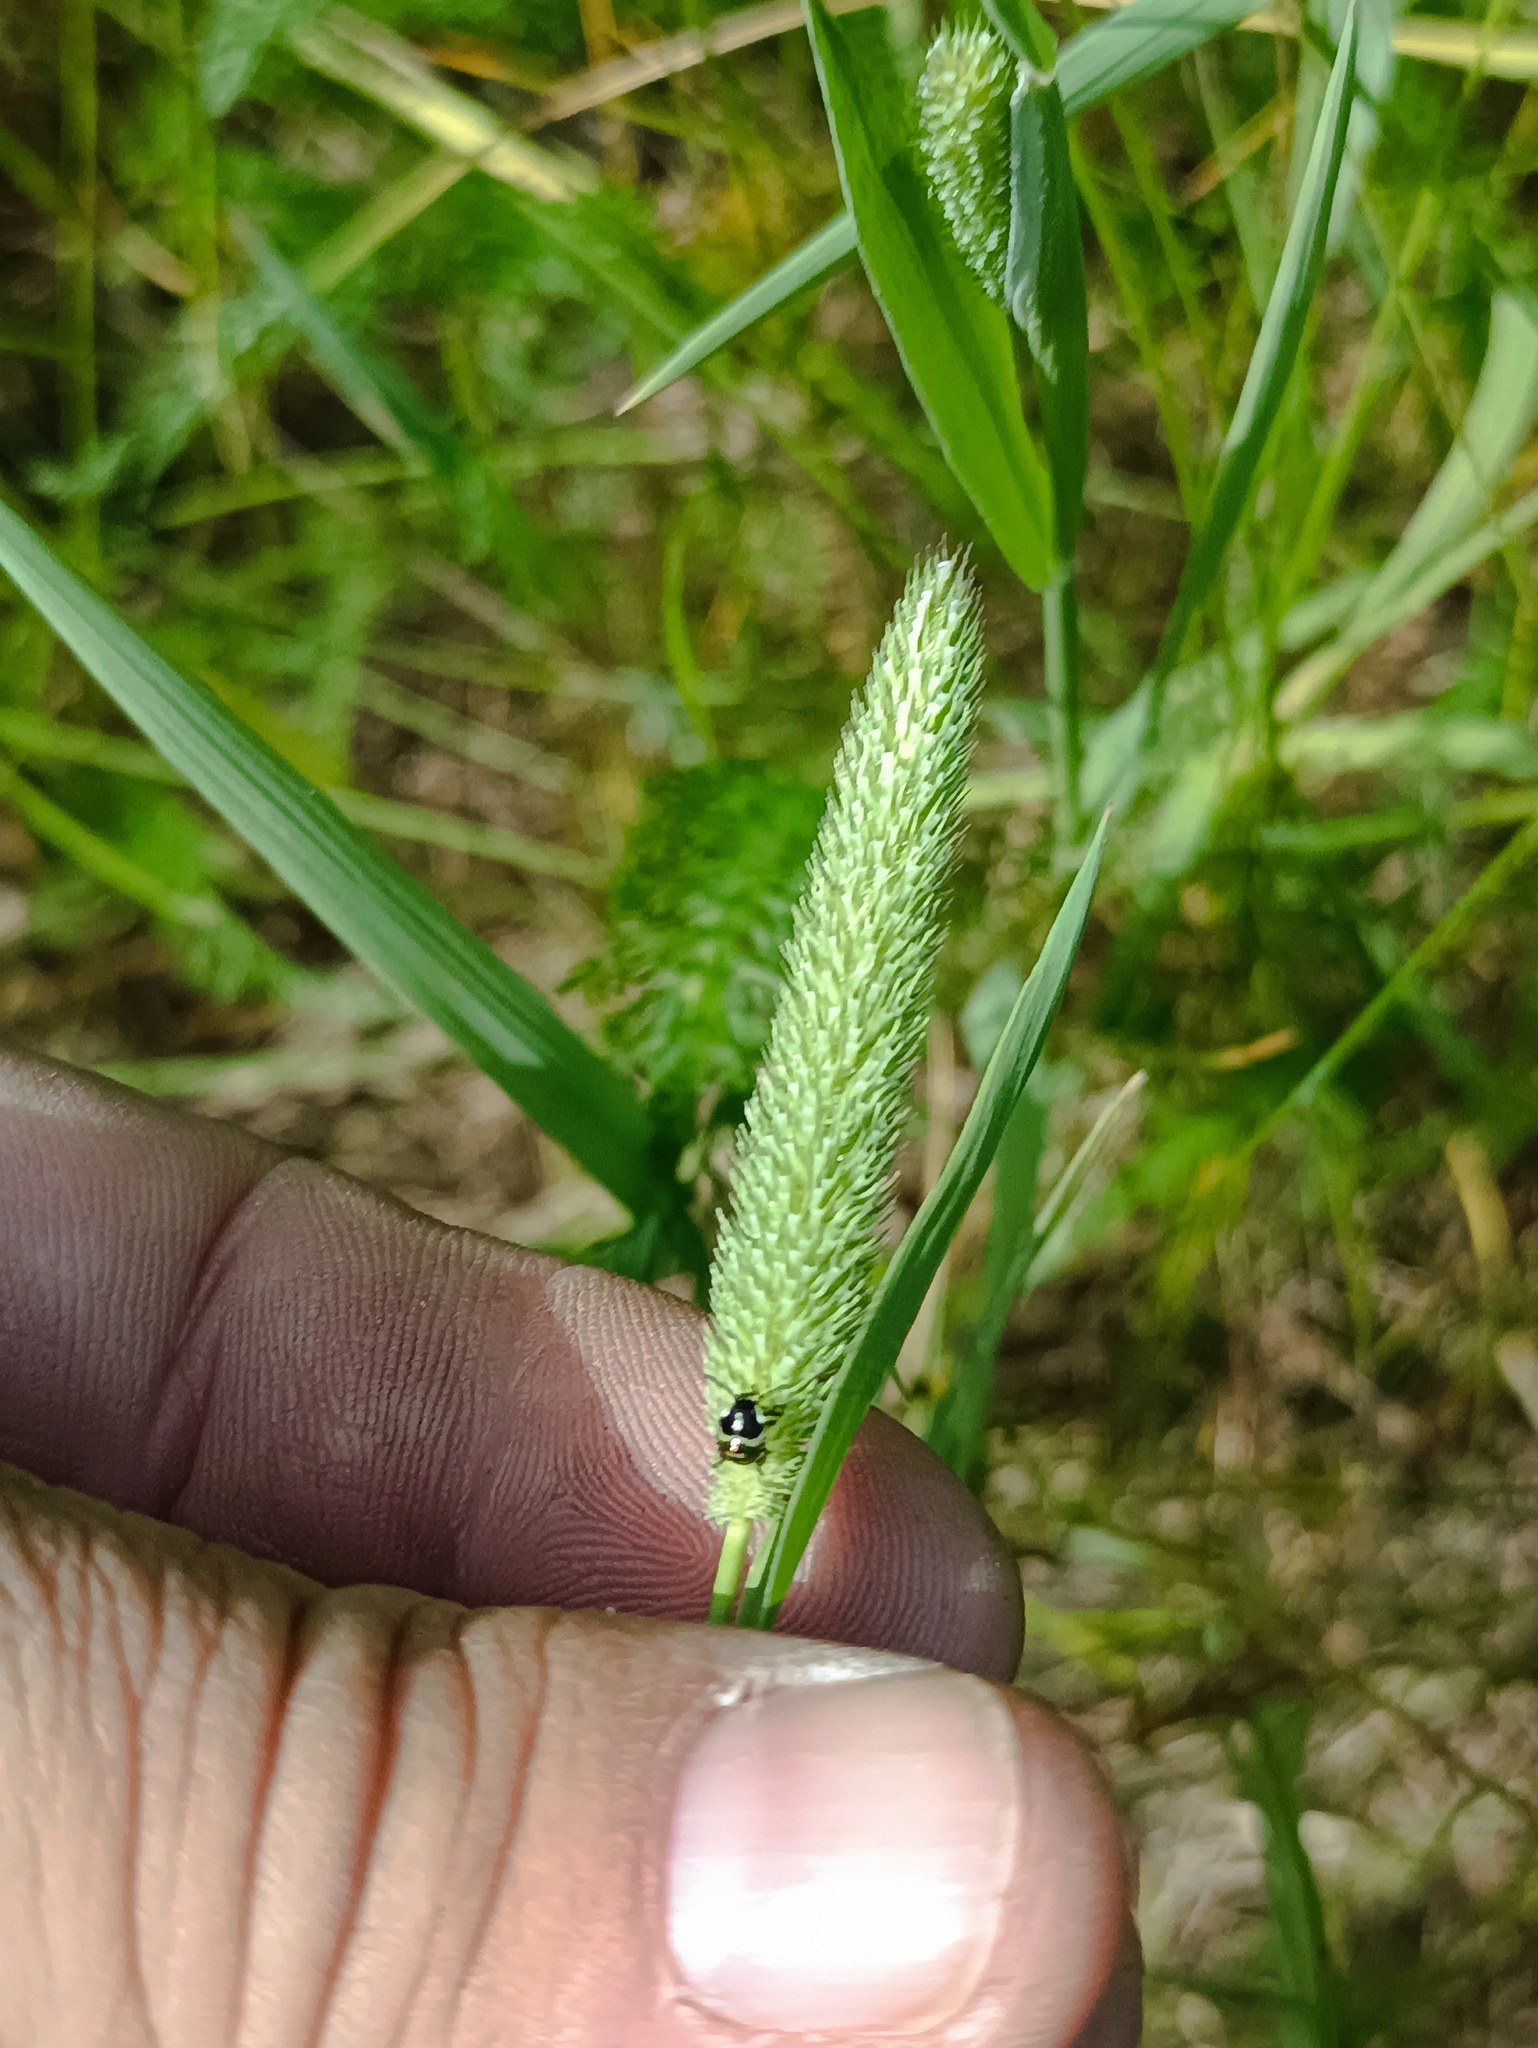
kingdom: Animalia
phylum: Arthropoda
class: Insecta
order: Hemiptera
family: Pentatomidae
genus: Palomena
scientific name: Palomena prasina
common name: Green shieldbug
